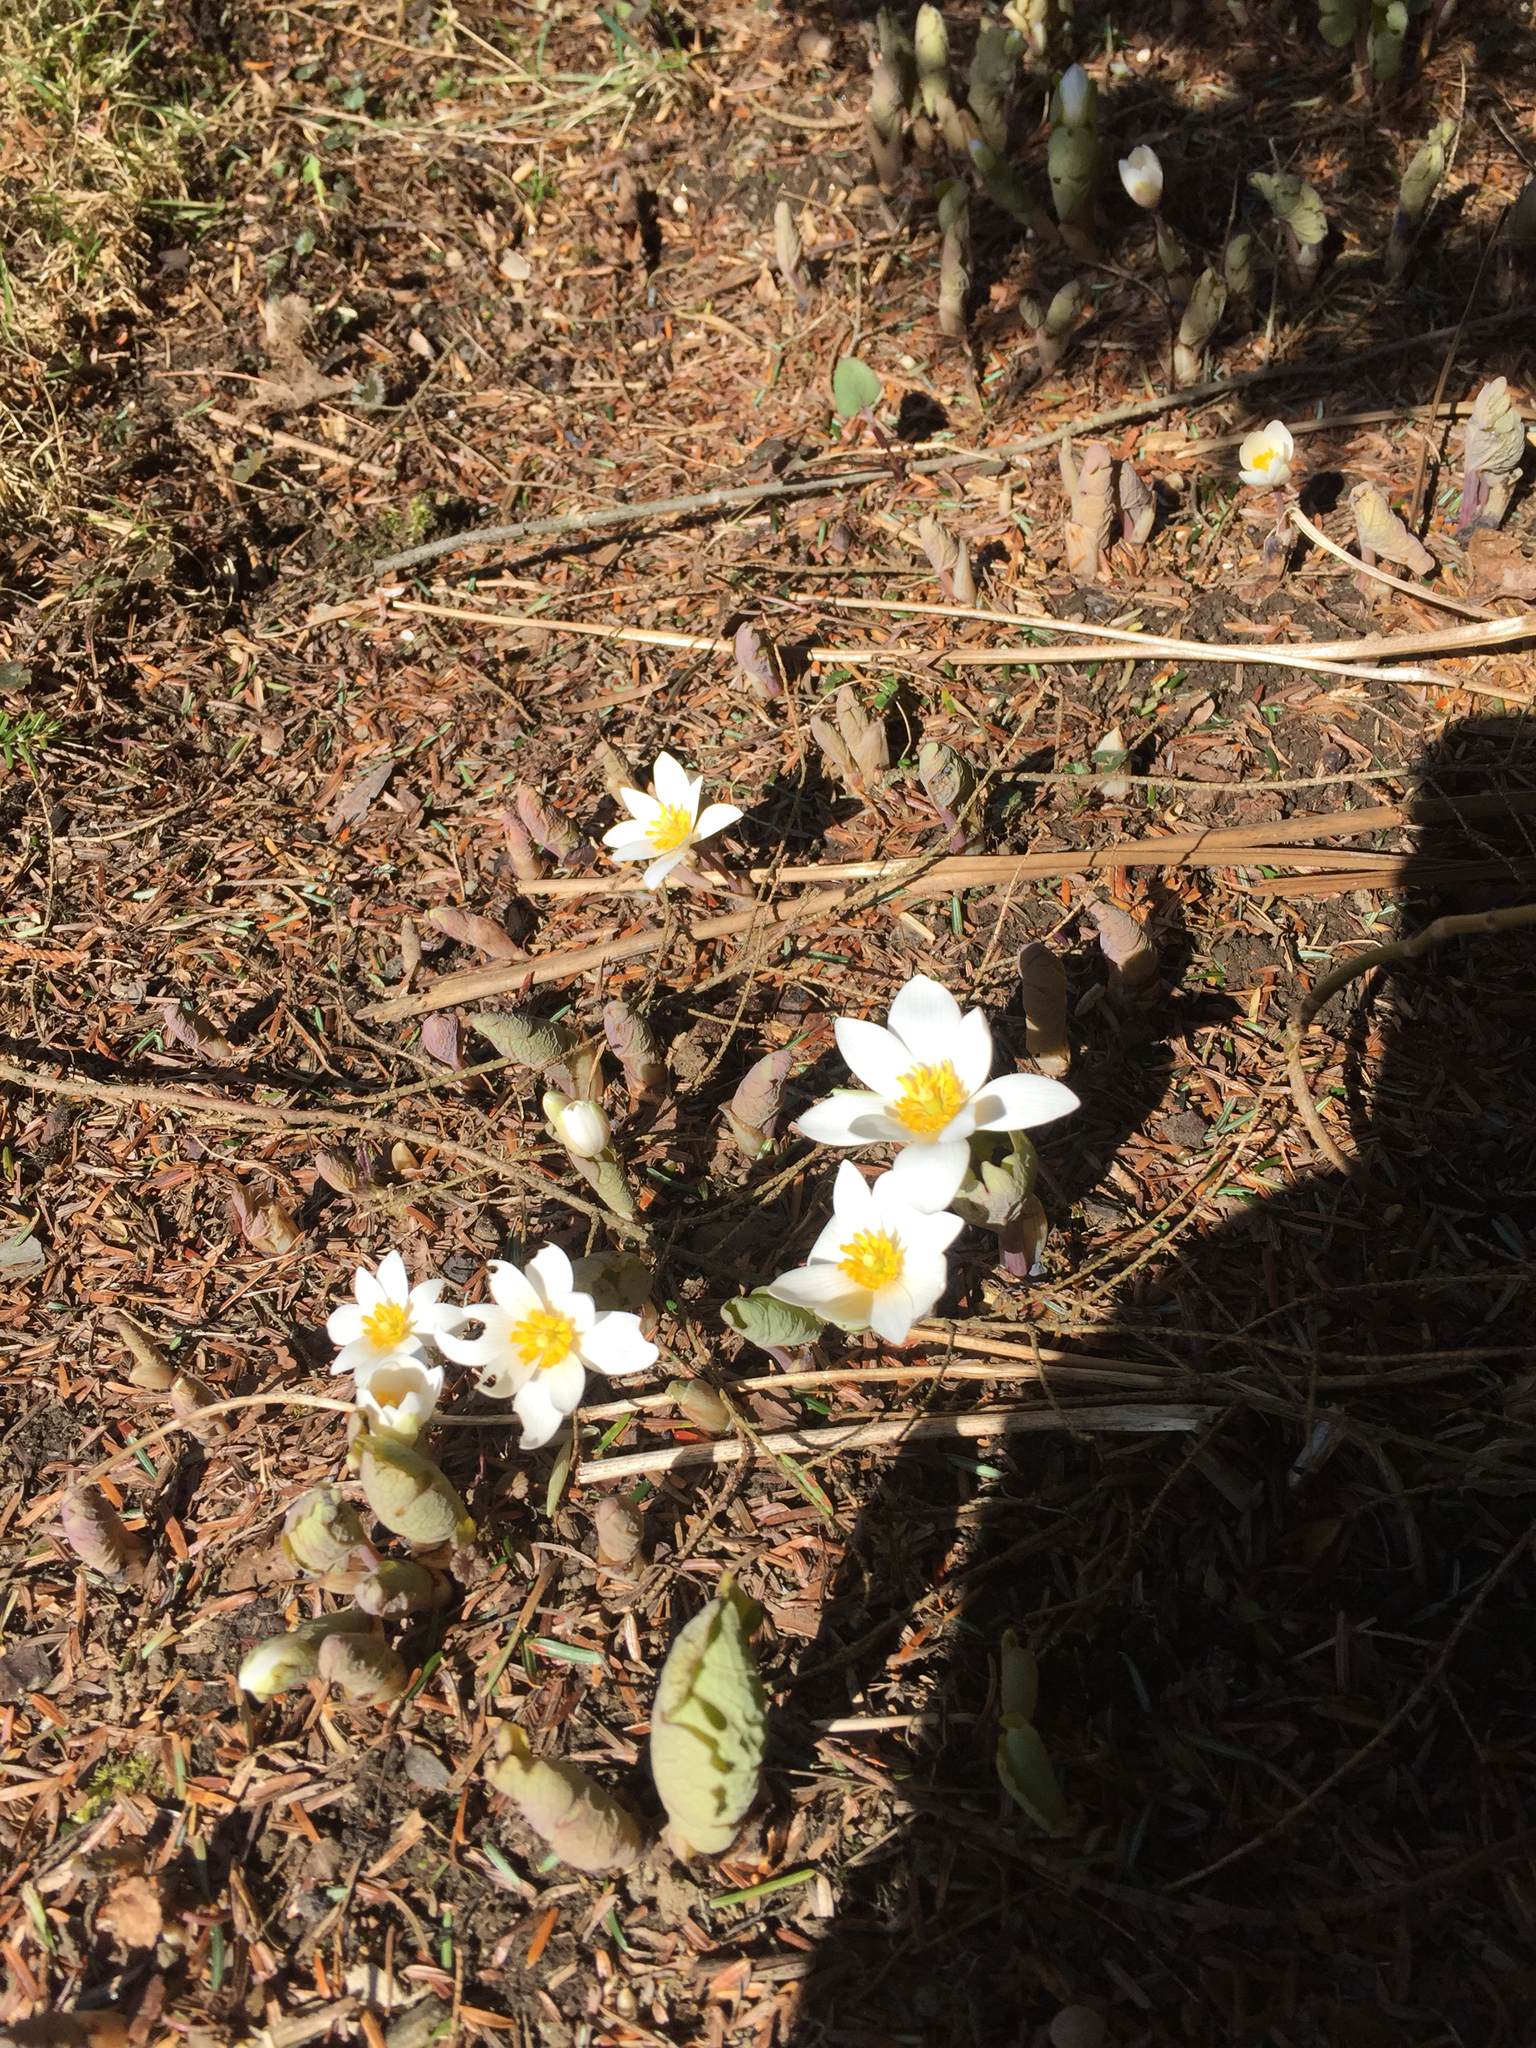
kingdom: Plantae
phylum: Tracheophyta
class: Magnoliopsida
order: Ranunculales
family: Papaveraceae
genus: Sanguinaria
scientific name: Sanguinaria canadensis
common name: Bloodroot
